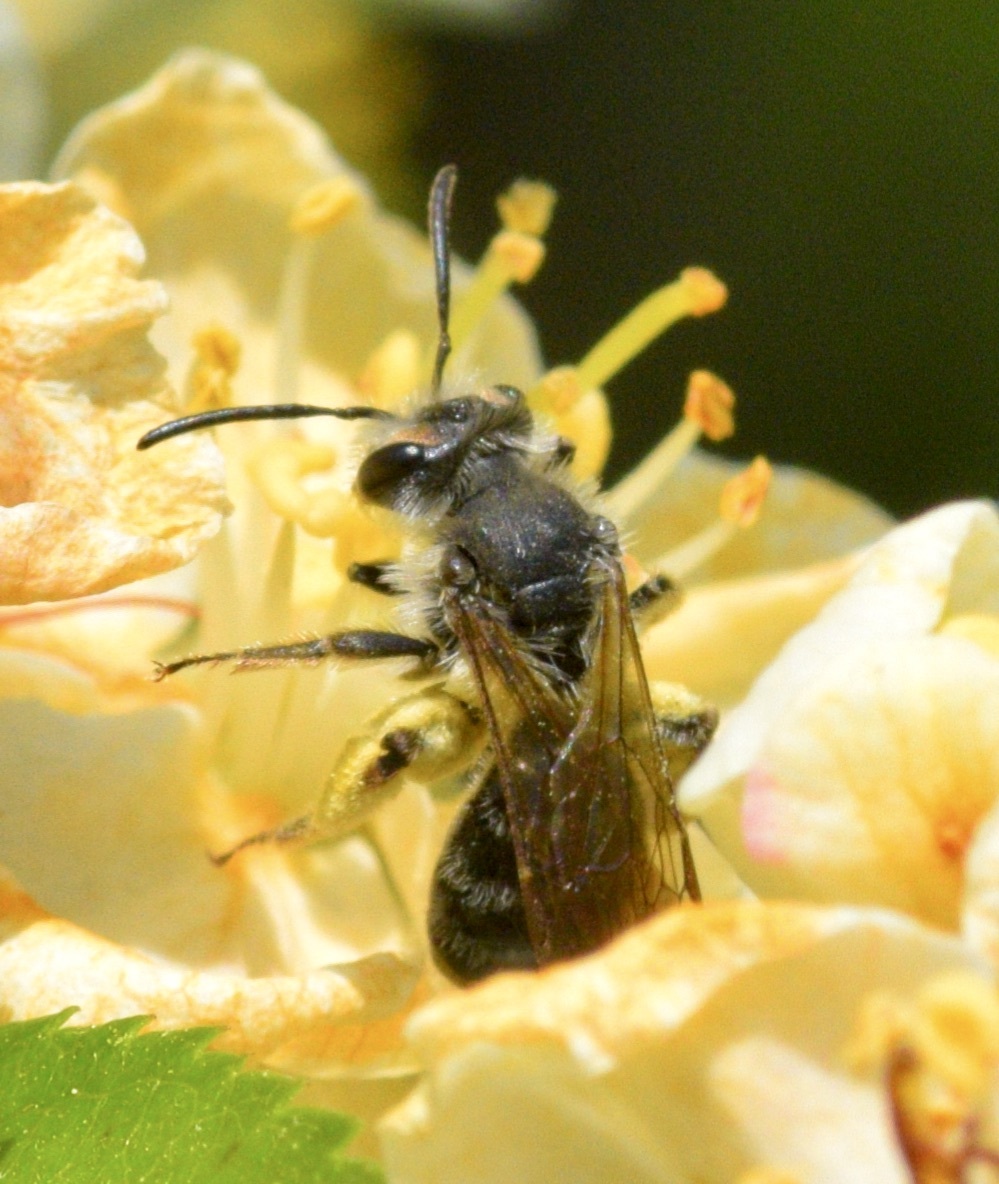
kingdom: Animalia
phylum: Arthropoda
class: Insecta
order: Hymenoptera
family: Andrenidae
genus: Andrena
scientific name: Andrena rufosignata
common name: Brown-fovea miner
